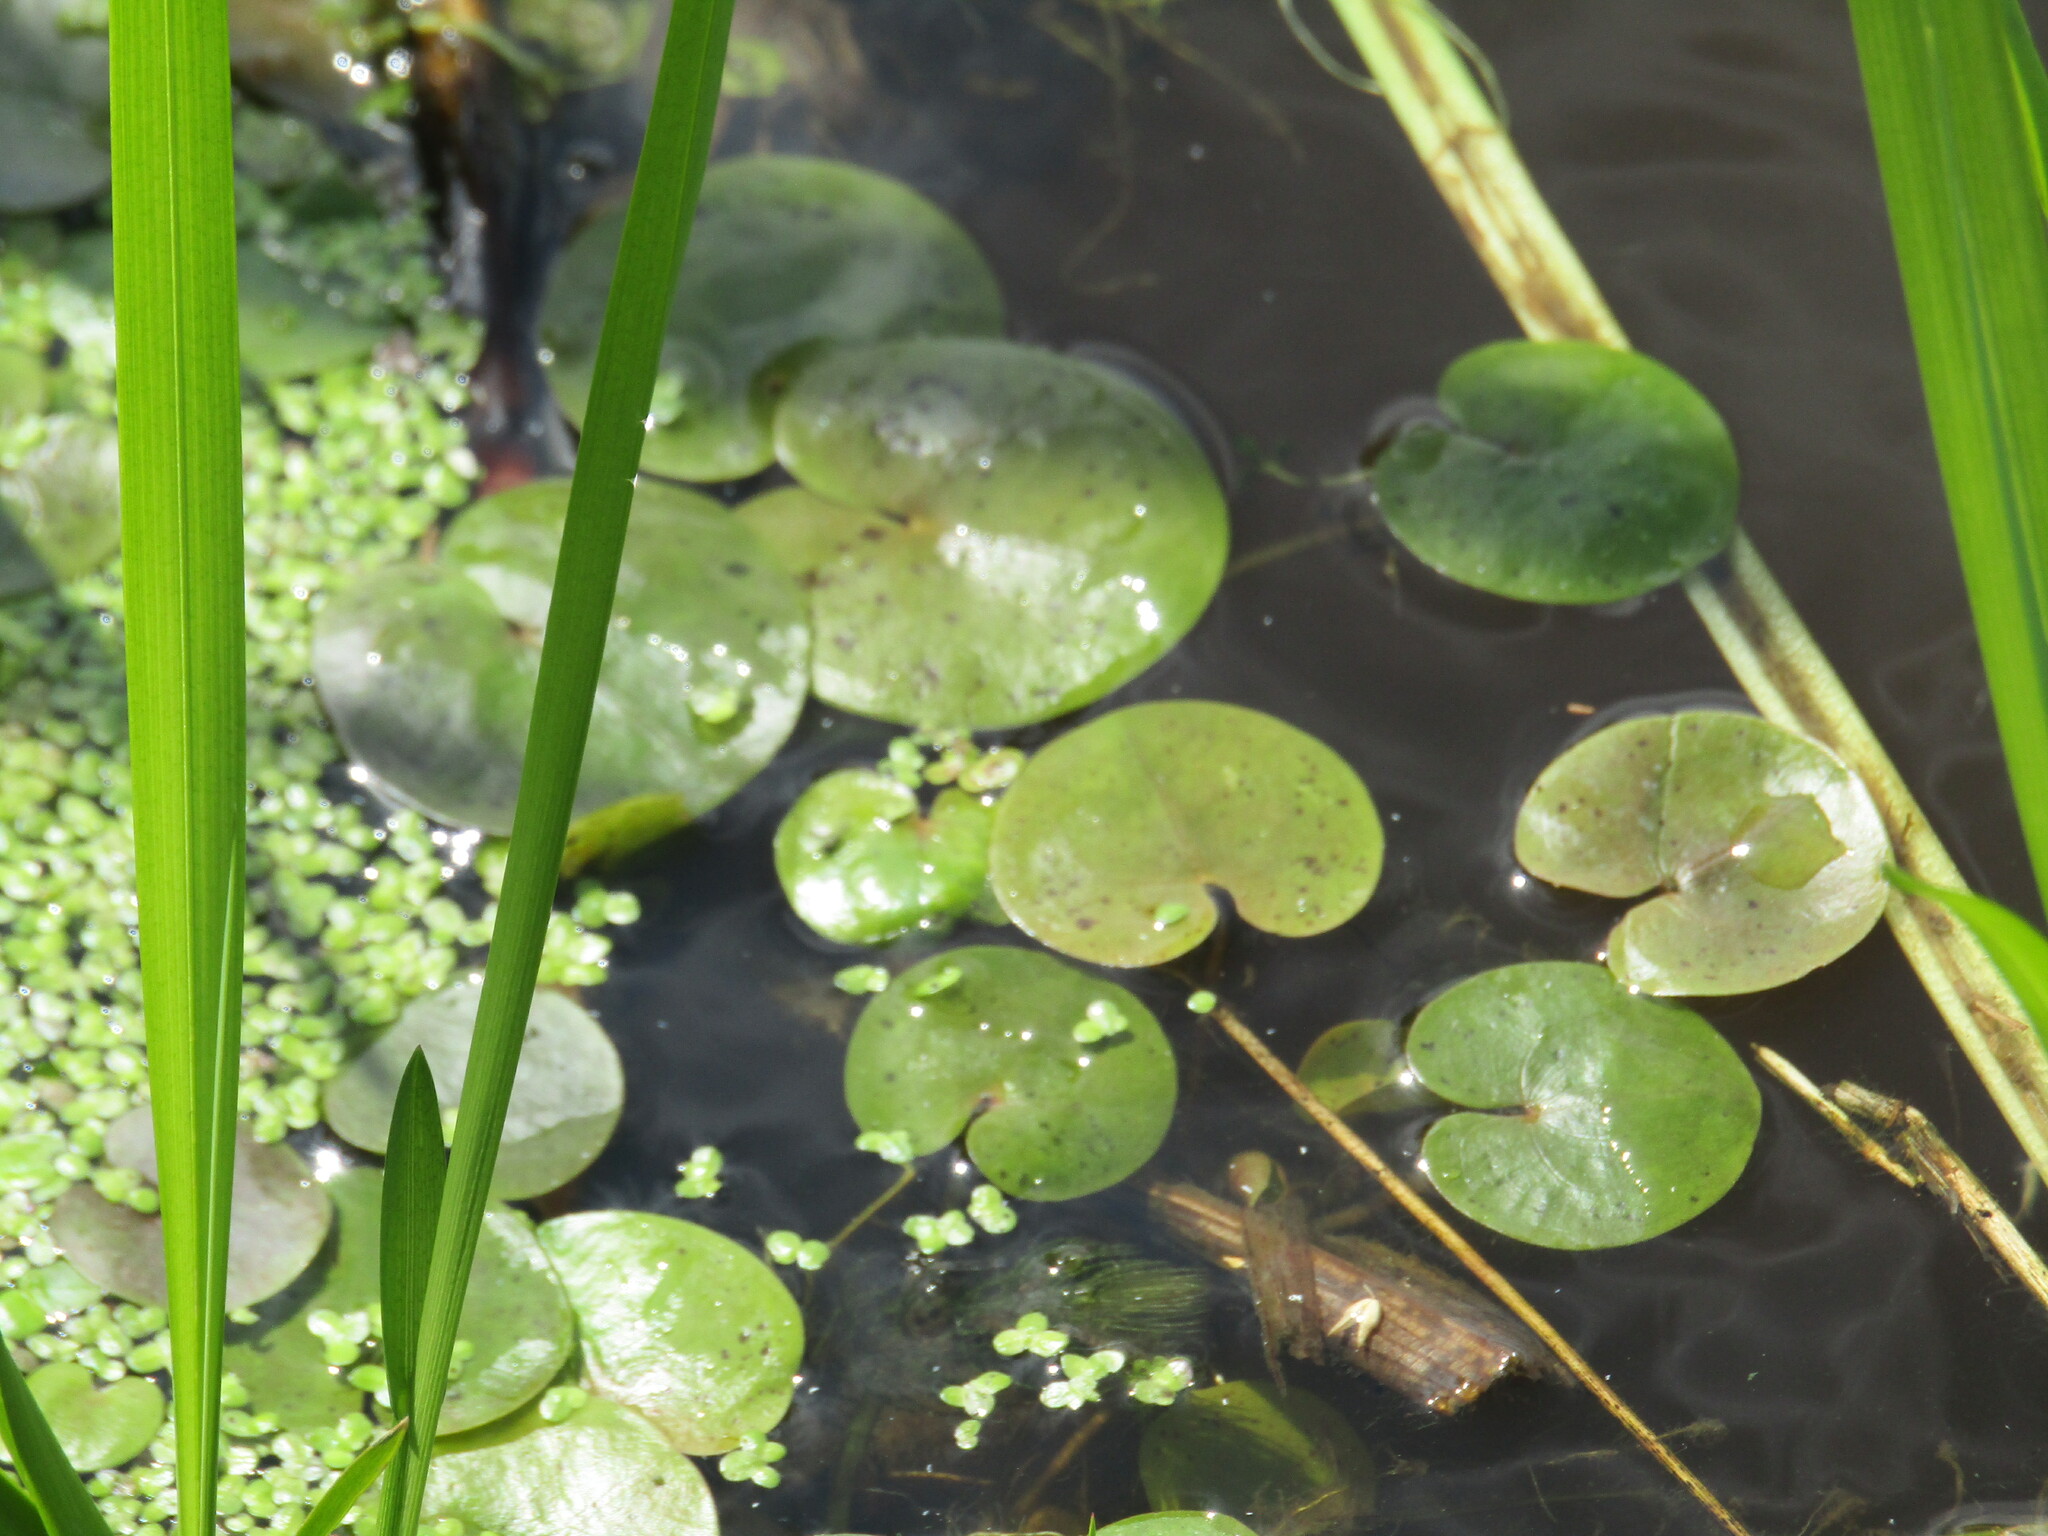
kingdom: Plantae
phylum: Tracheophyta
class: Liliopsida
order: Alismatales
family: Hydrocharitaceae
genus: Hydrocharis
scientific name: Hydrocharis morsus-ranae
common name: Frogbit
